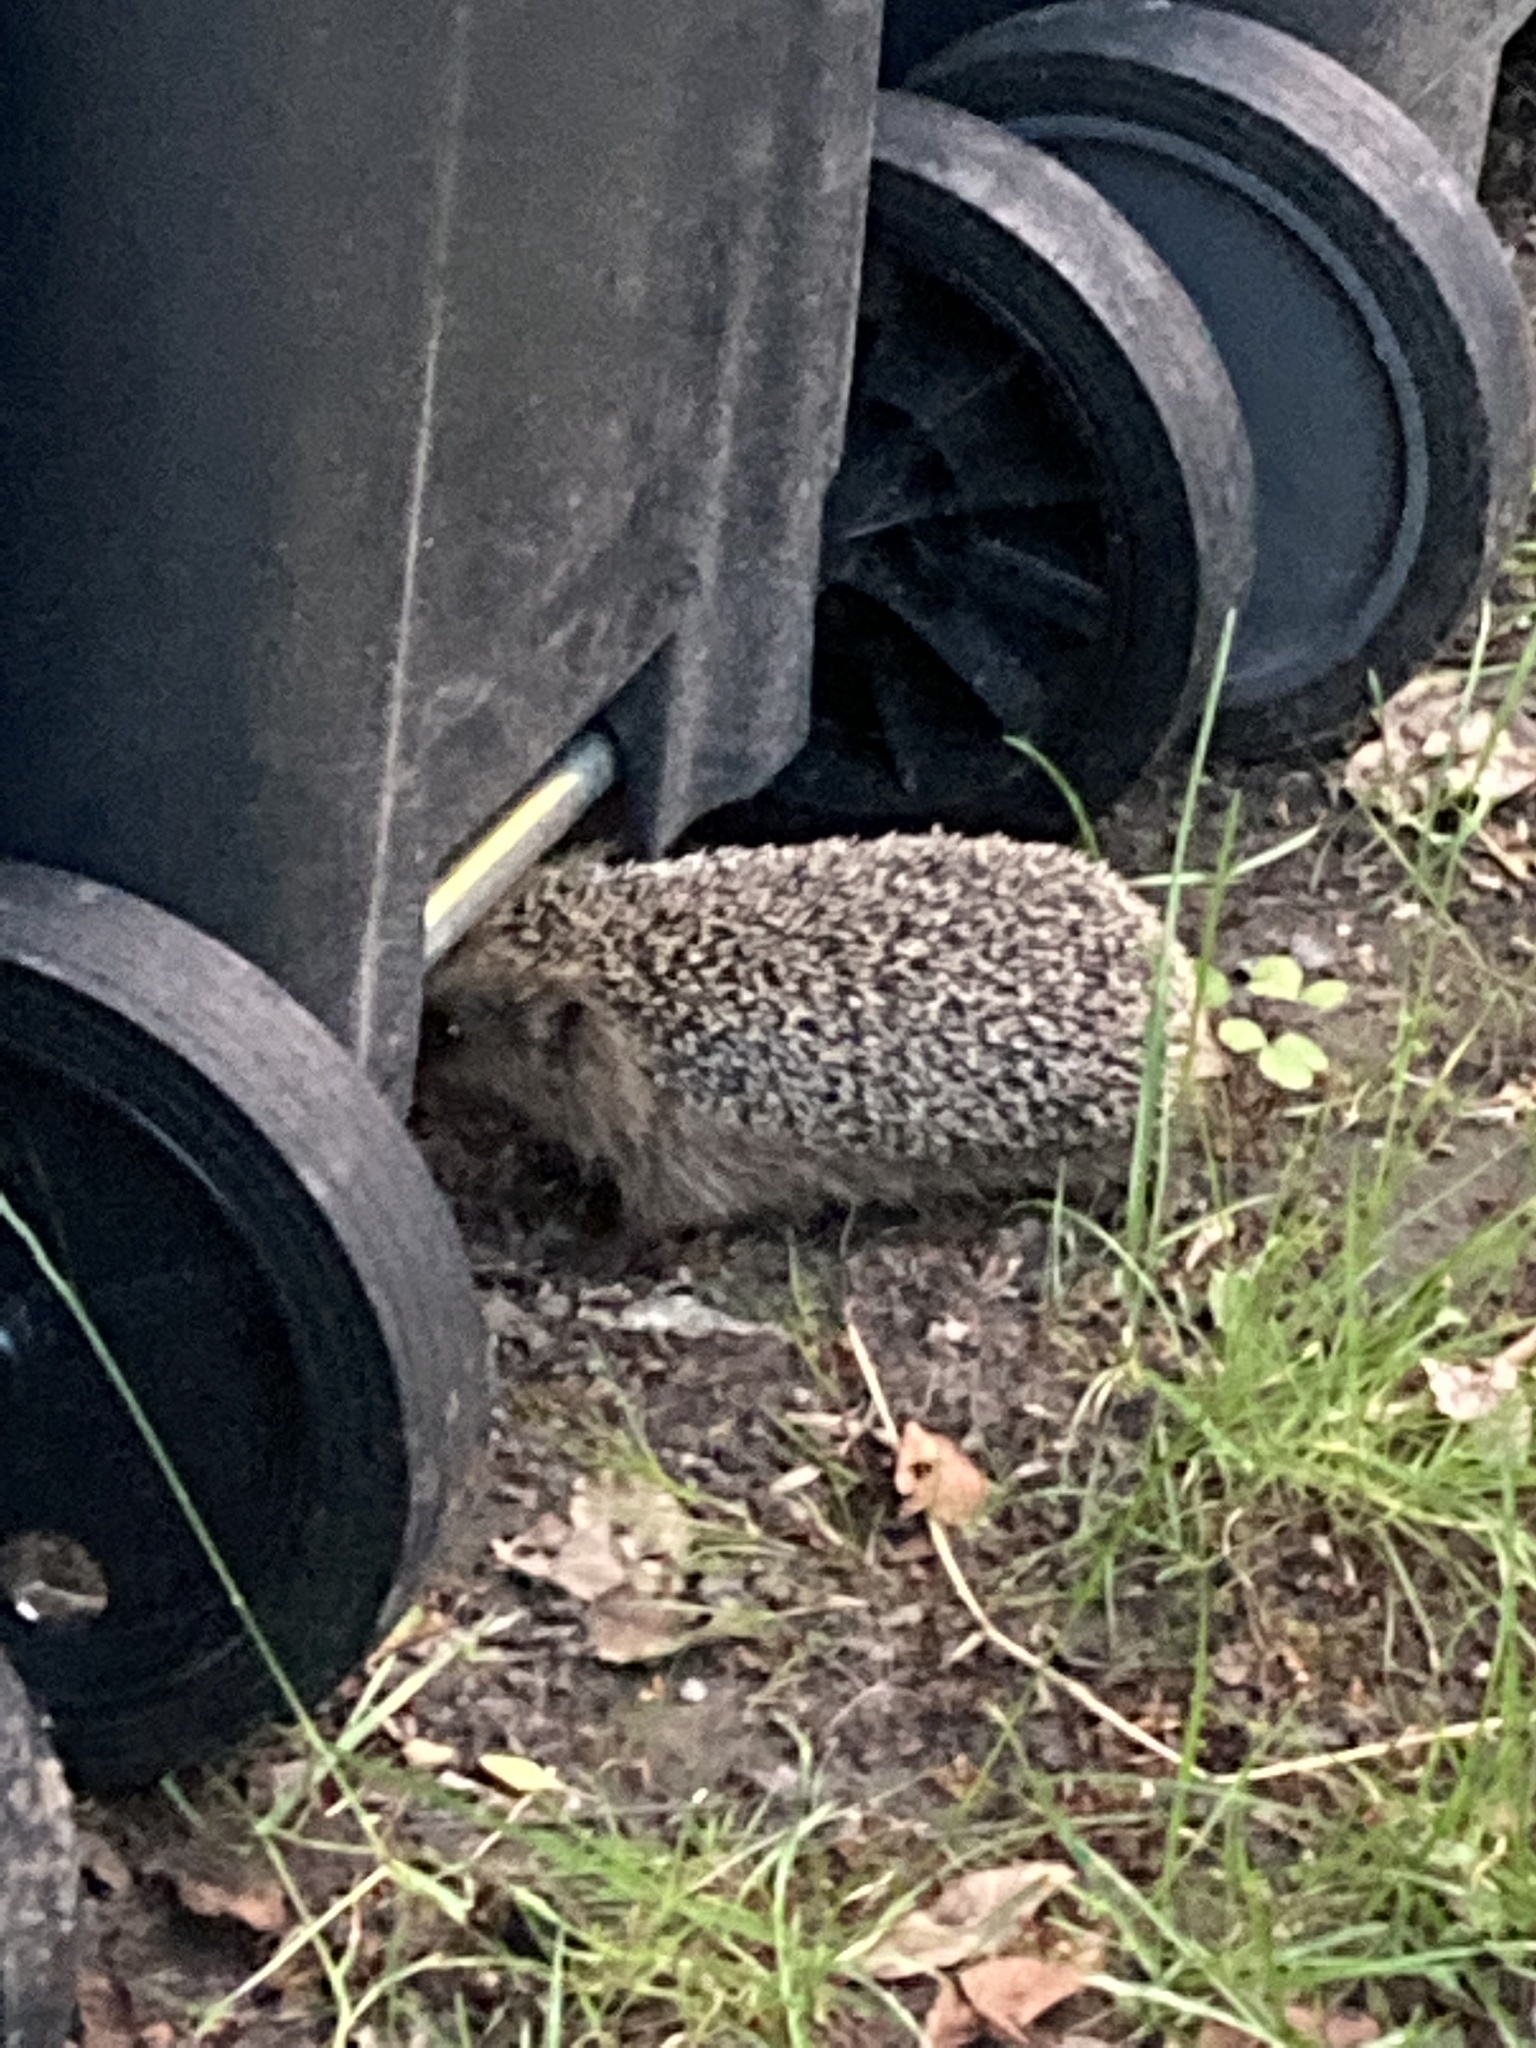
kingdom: Animalia
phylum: Chordata
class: Mammalia
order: Erinaceomorpha
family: Erinaceidae
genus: Erinaceus
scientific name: Erinaceus europaeus
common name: West european hedgehog
